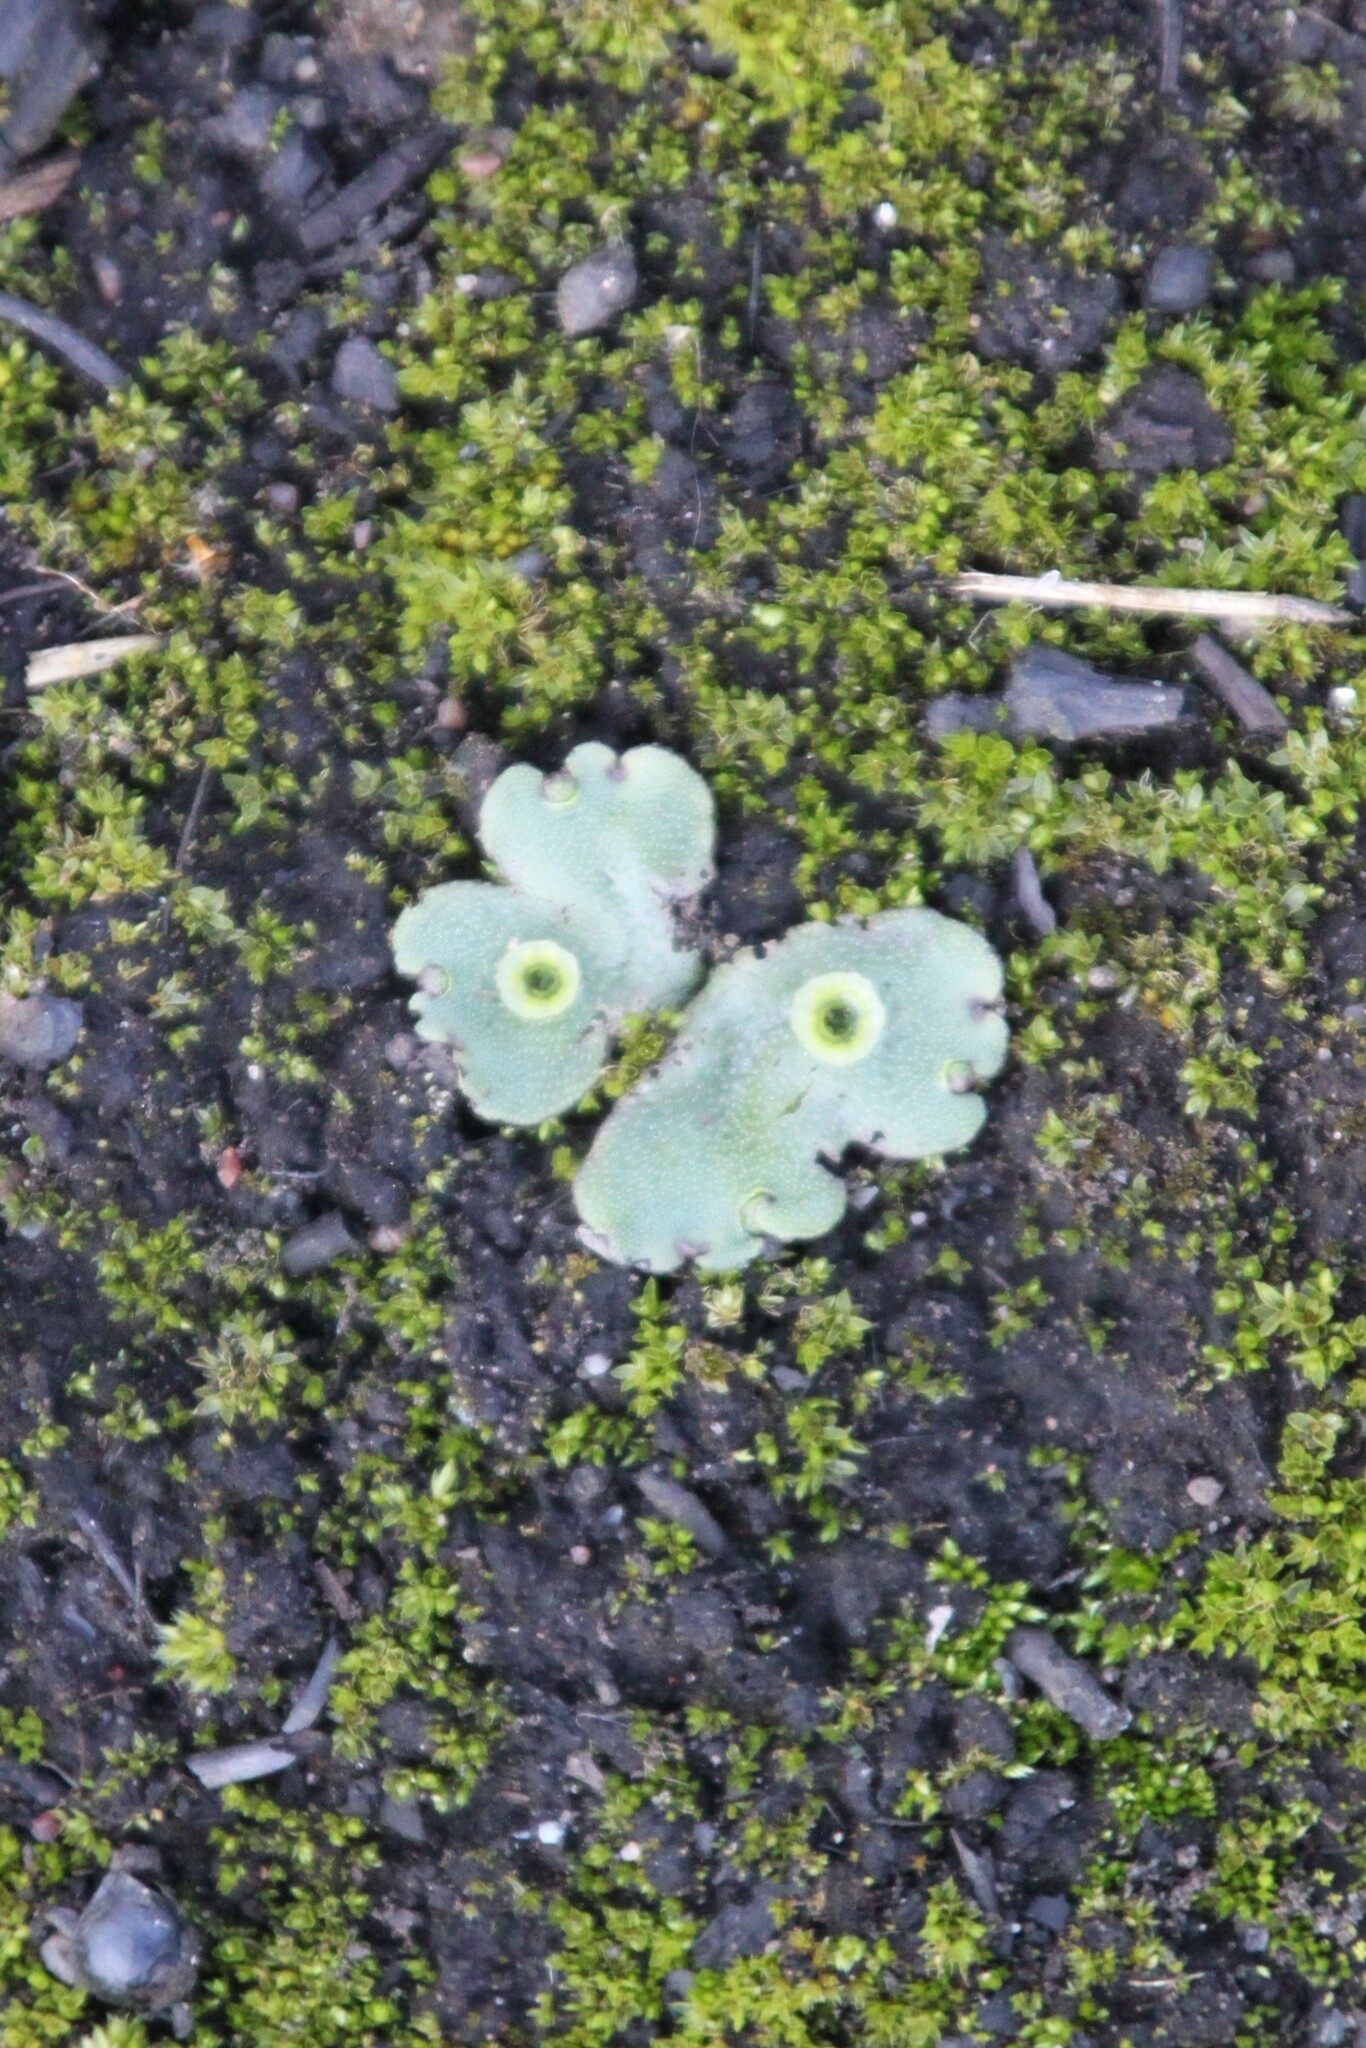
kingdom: Plantae
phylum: Marchantiophyta
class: Marchantiopsida
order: Marchantiales
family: Marchantiaceae
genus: Marchantia
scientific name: Marchantia polymorpha
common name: Common liverwort
